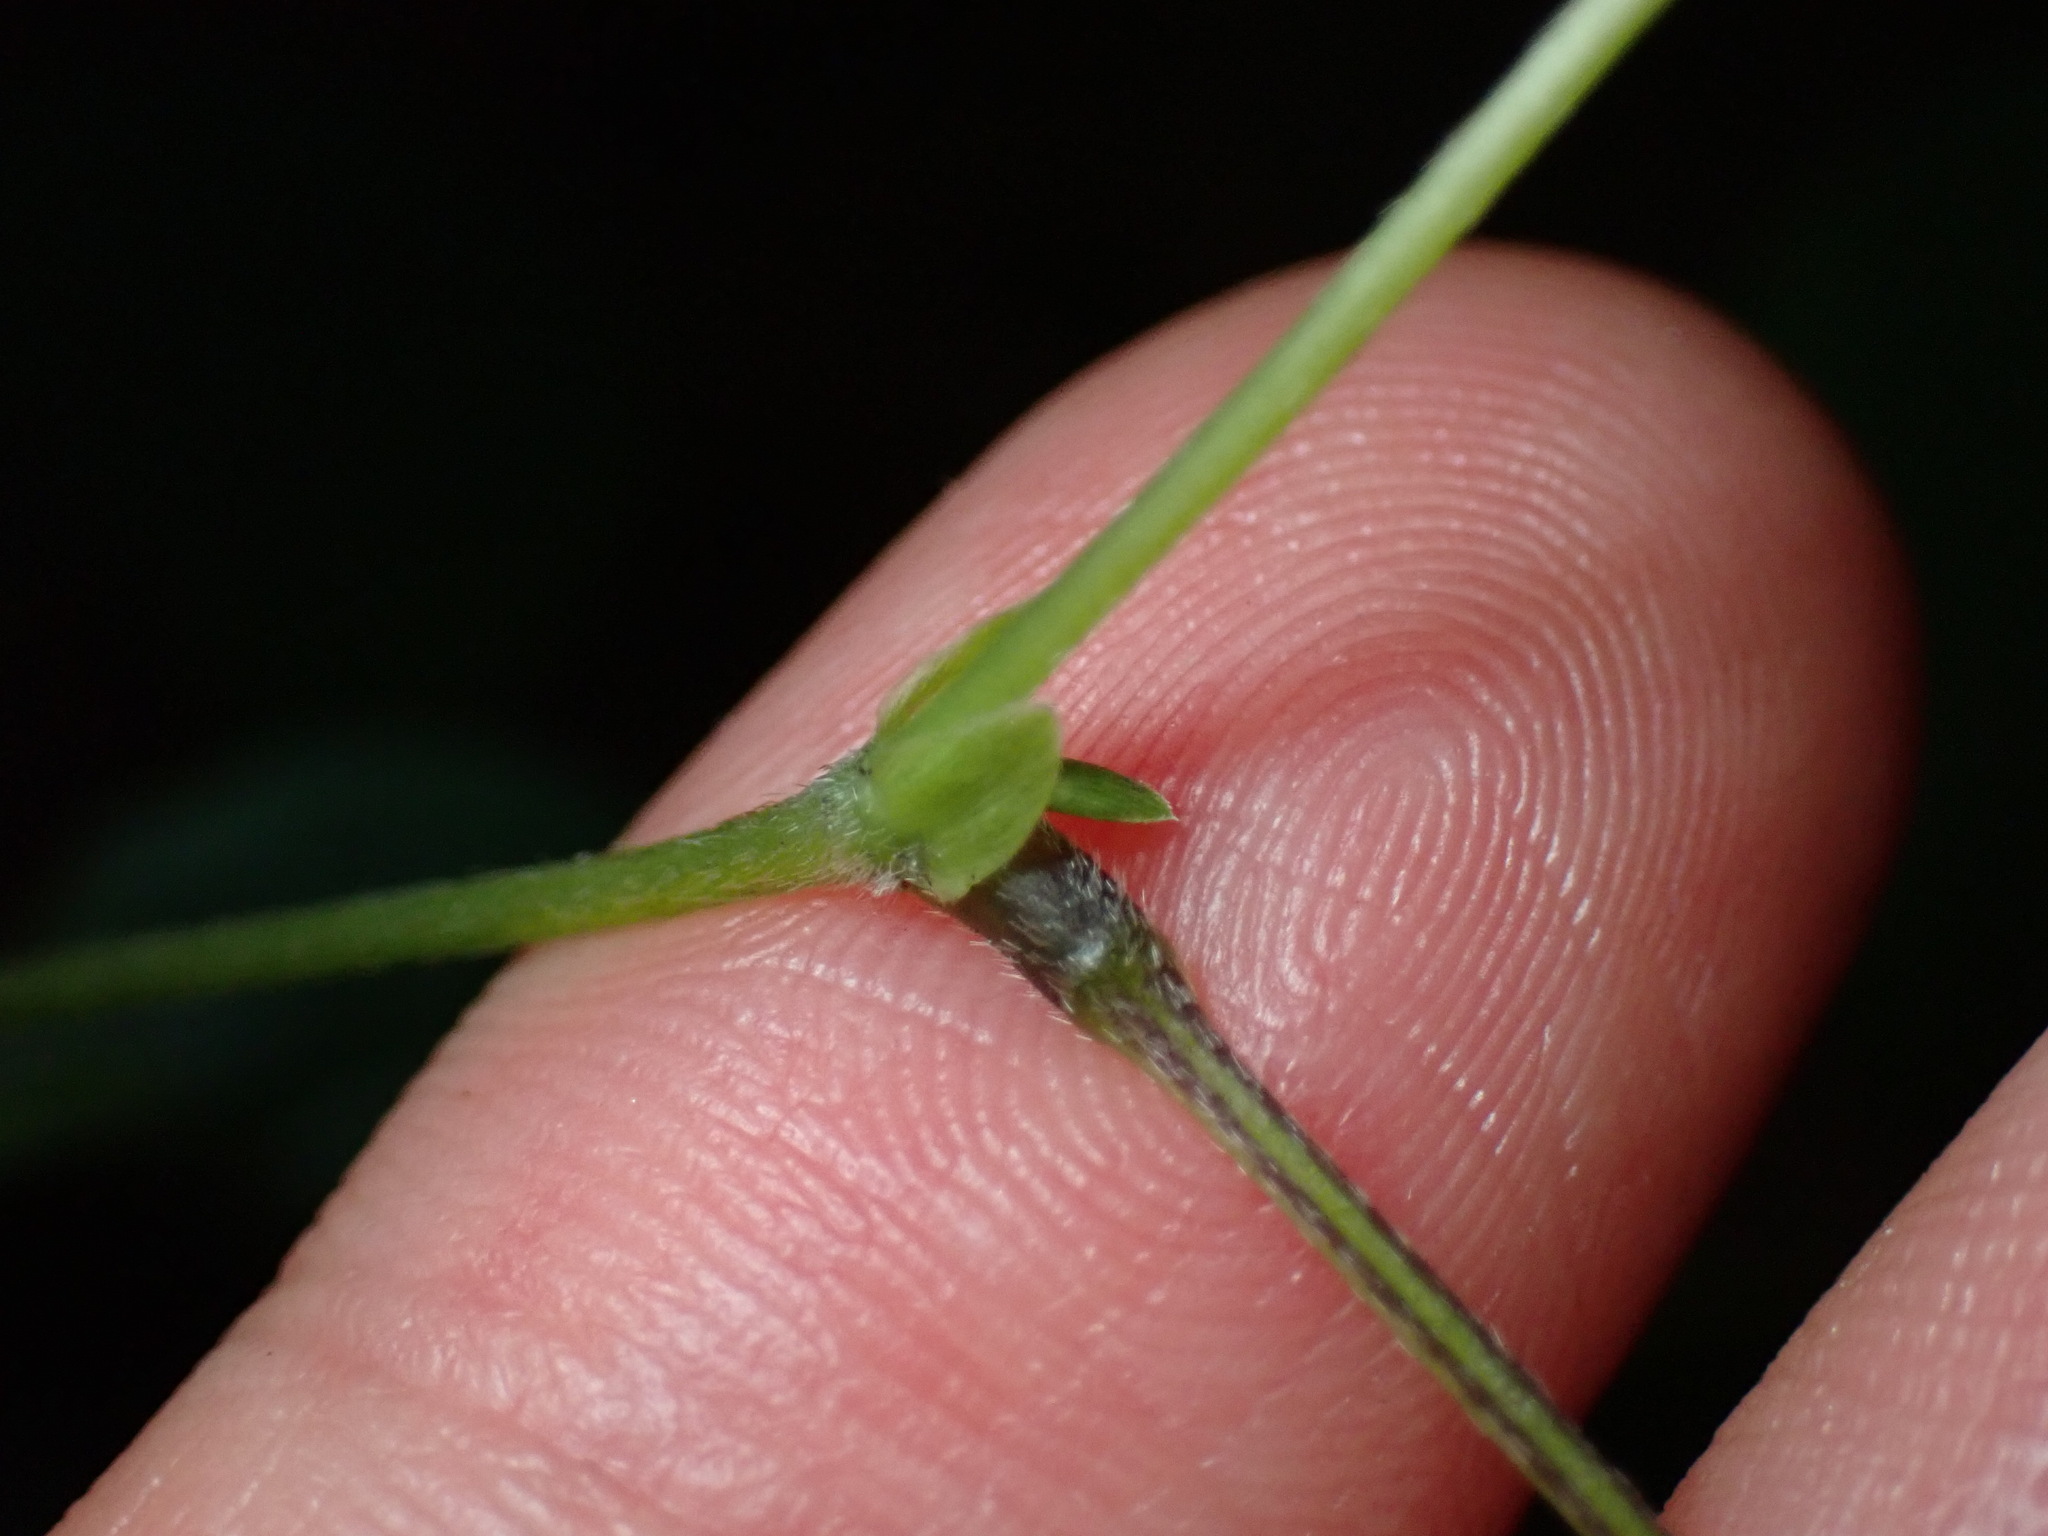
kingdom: Plantae
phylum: Tracheophyta
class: Magnoliopsida
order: Fabales
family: Fabaceae
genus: Amphicarpaea
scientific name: Amphicarpaea bracteata
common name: American hog peanut
